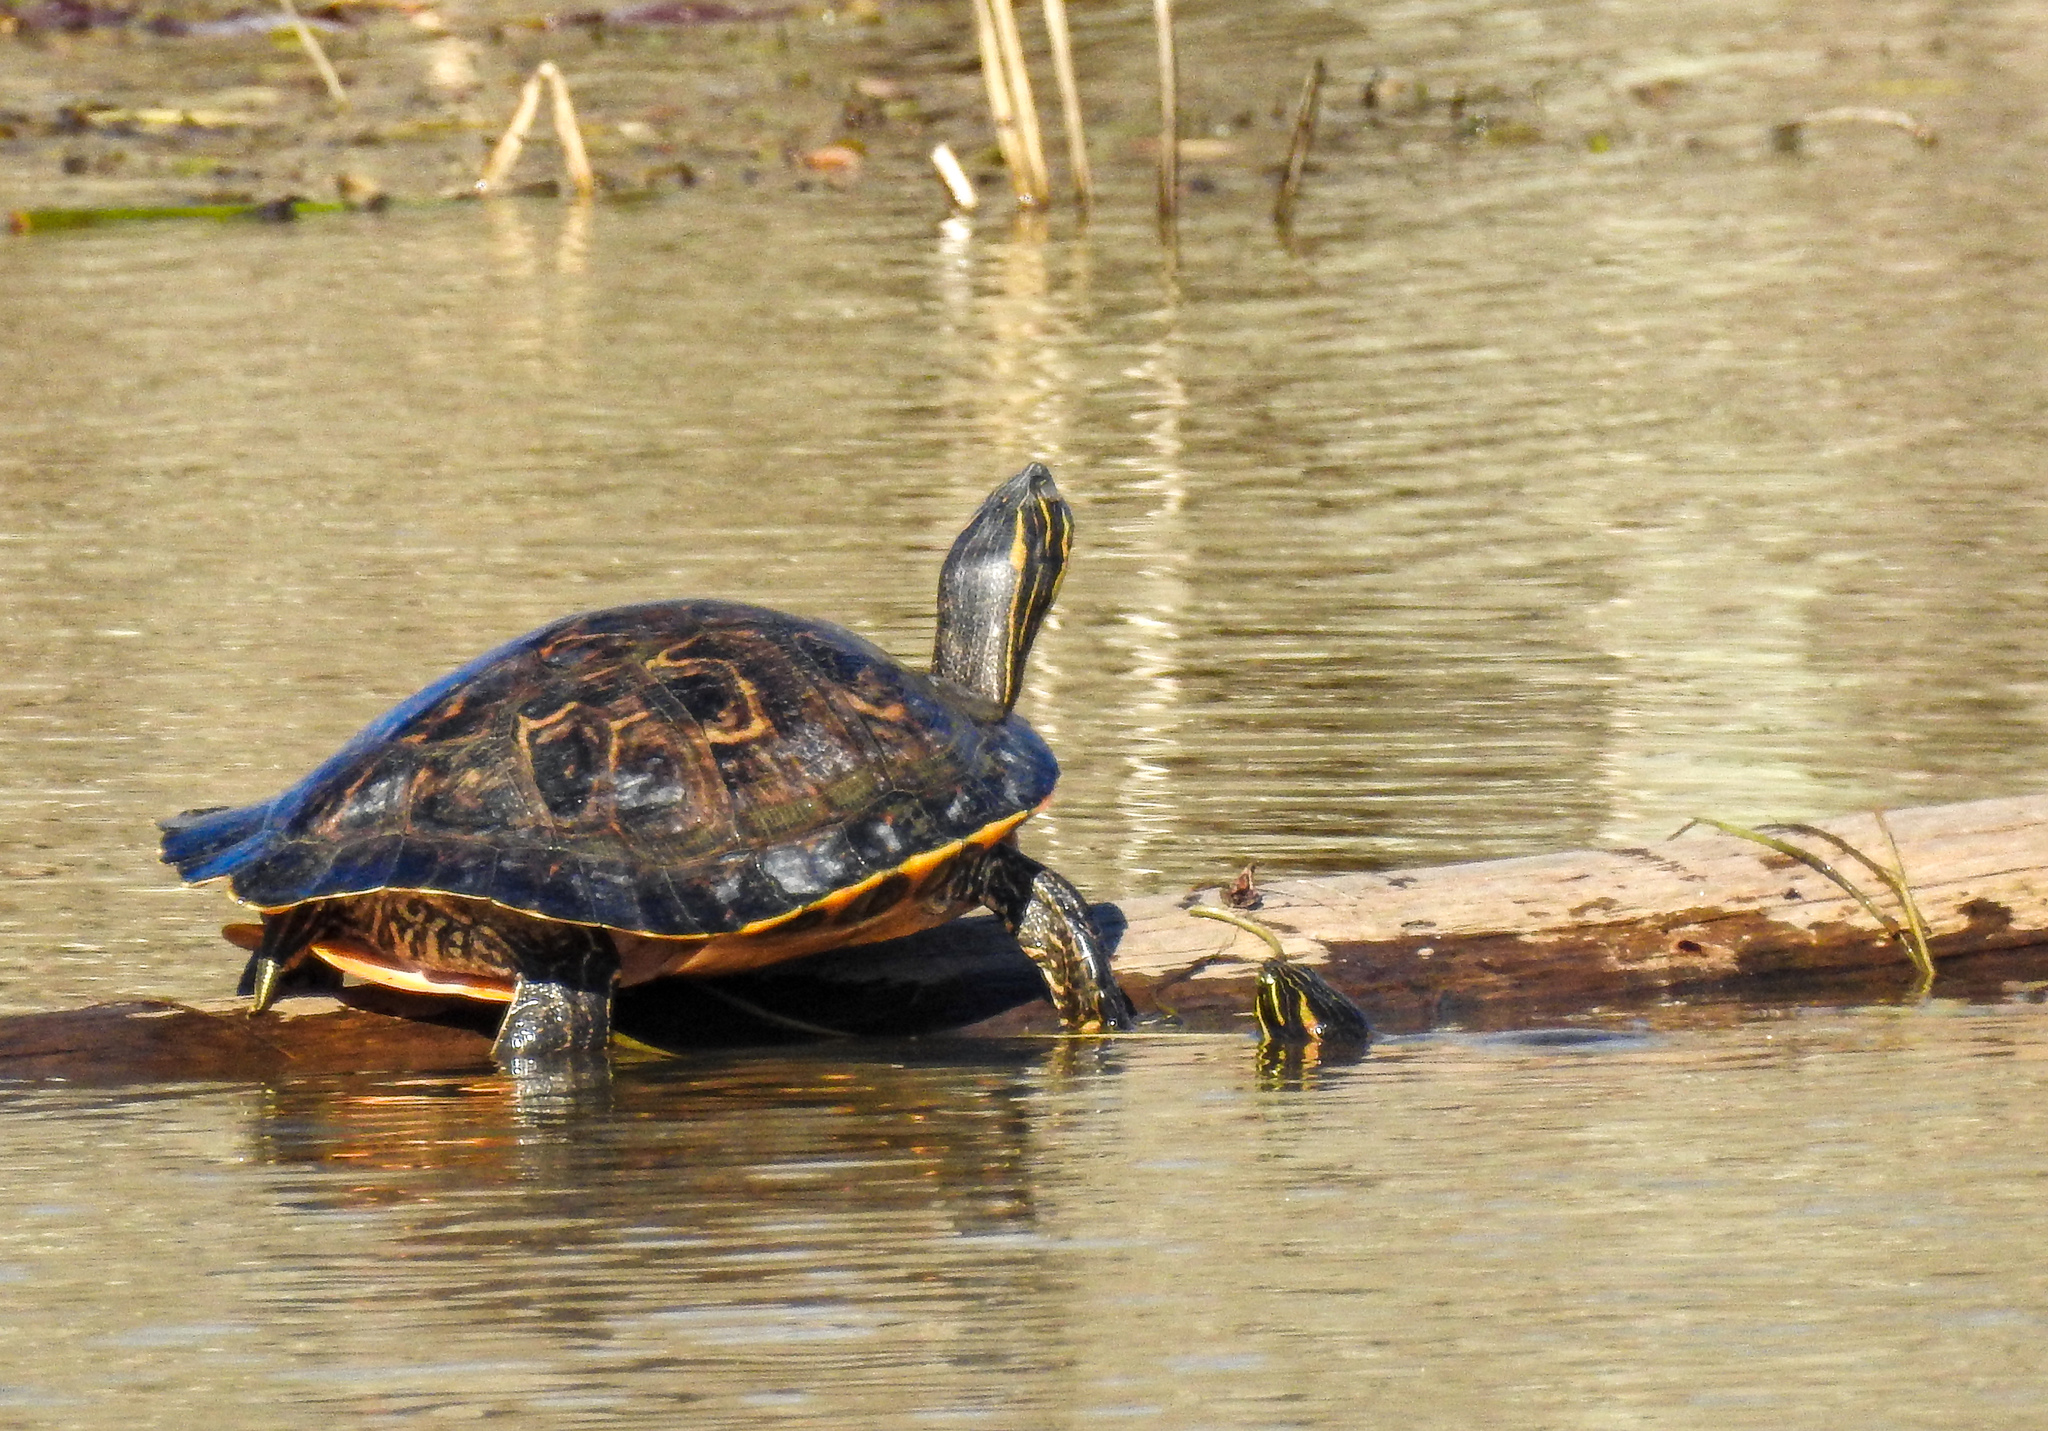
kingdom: Animalia
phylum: Chordata
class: Testudines
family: Emydidae
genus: Pseudemys
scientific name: Pseudemys concinna
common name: Eastern river cooter
